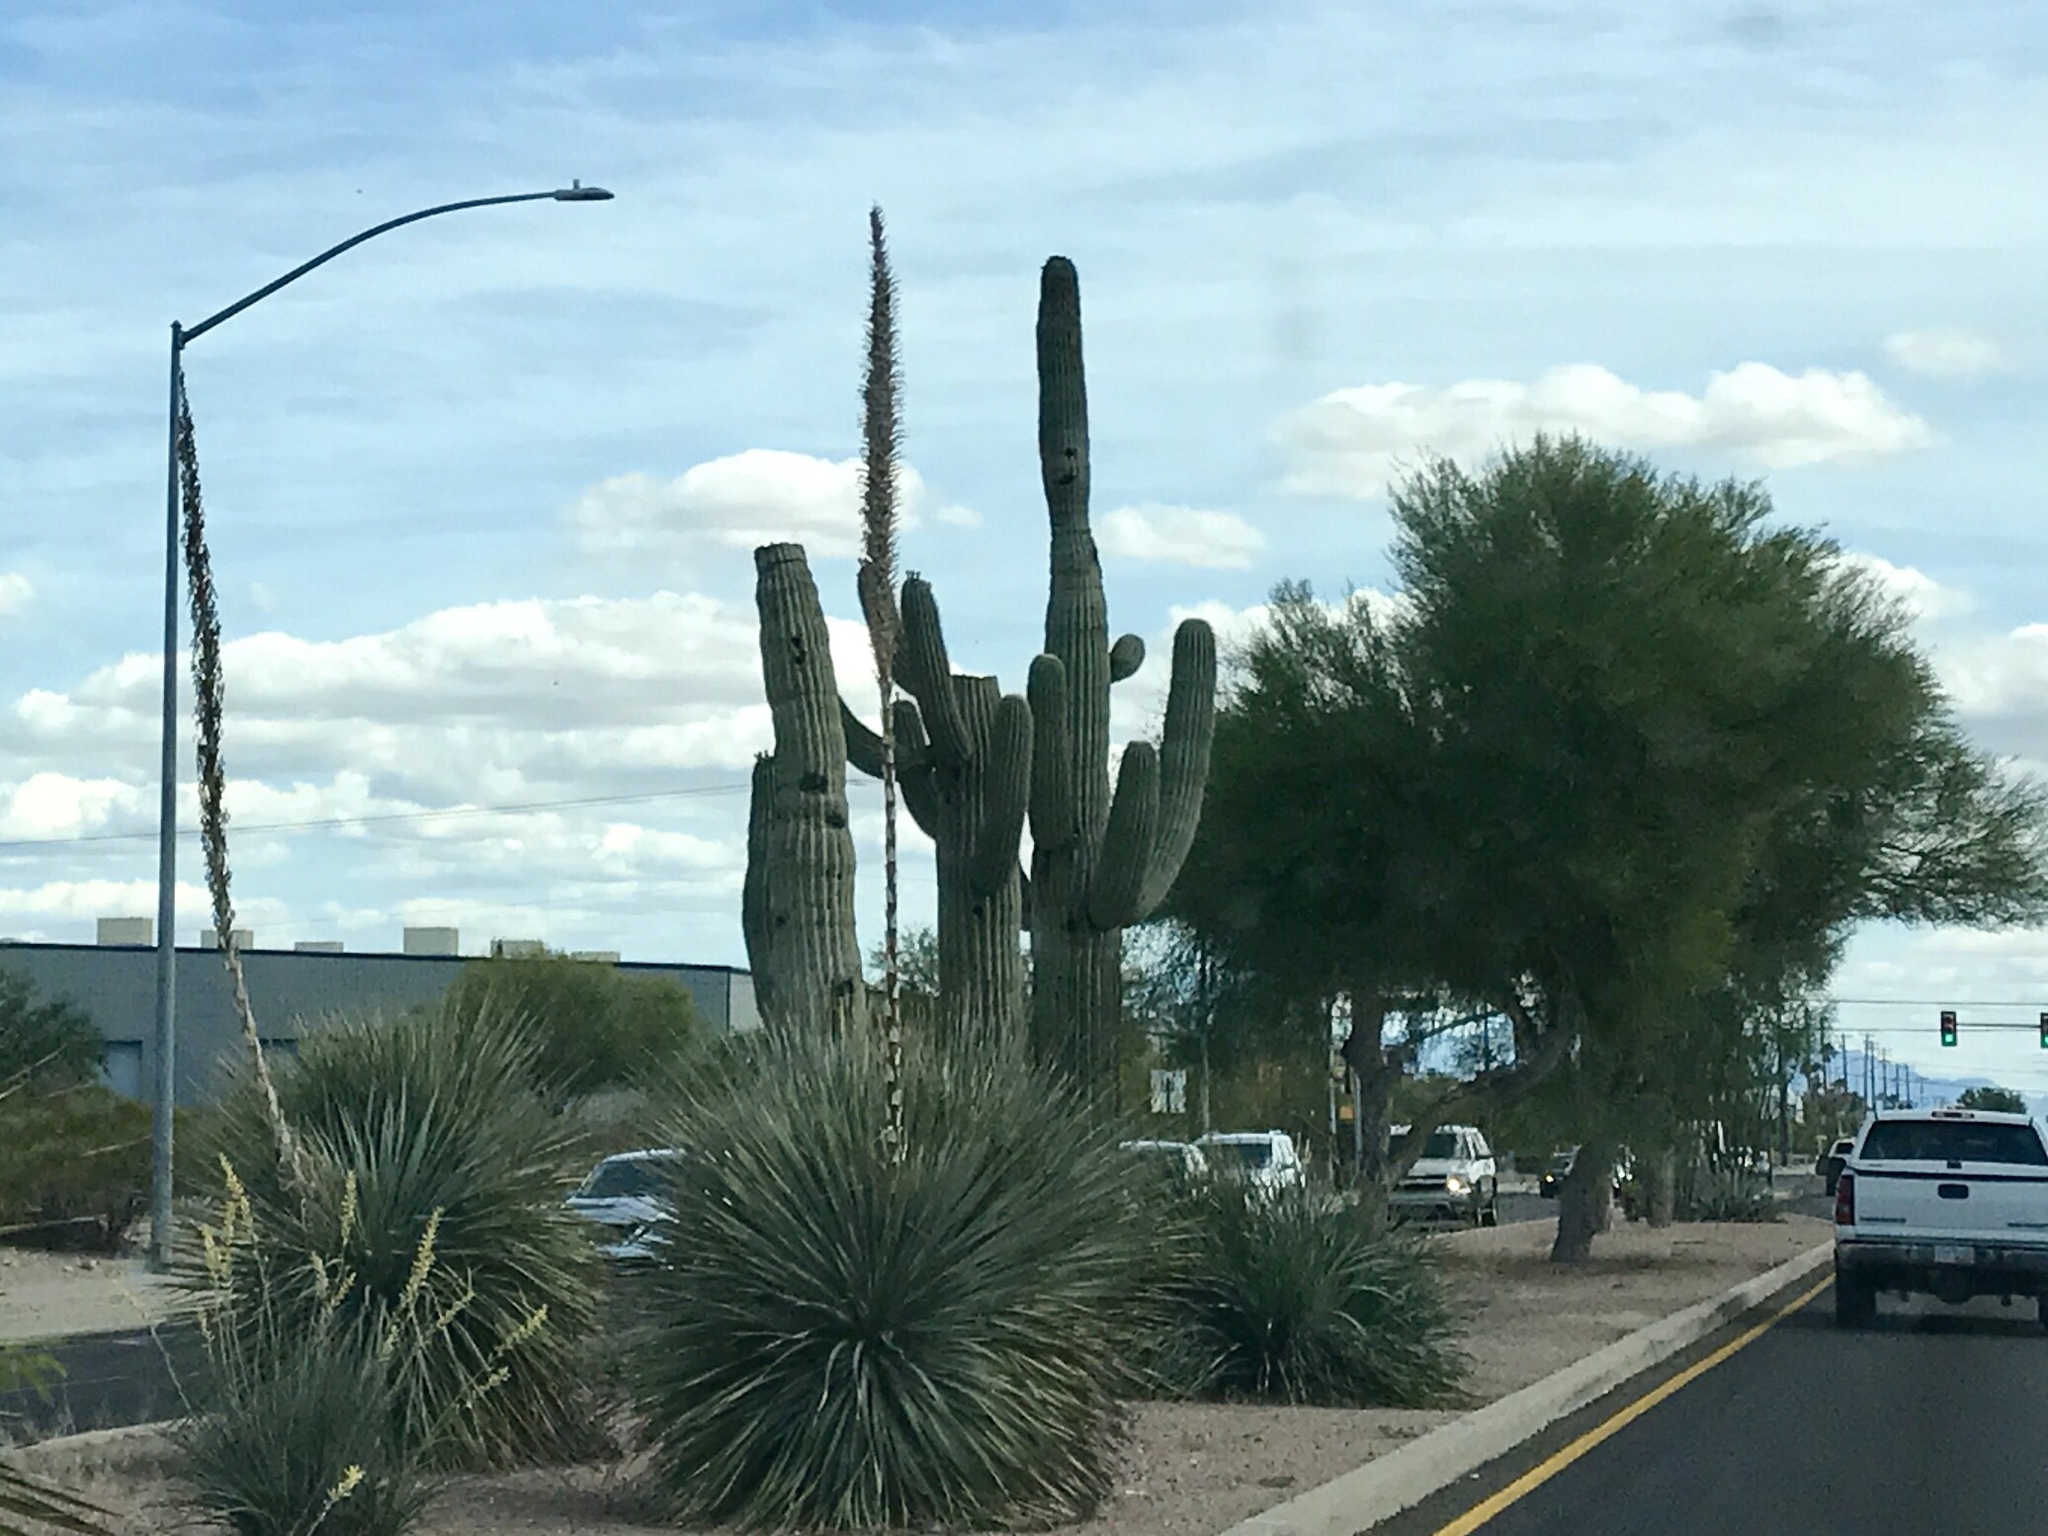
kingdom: Plantae
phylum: Tracheophyta
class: Magnoliopsida
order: Caryophyllales
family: Cactaceae
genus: Carnegiea
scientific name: Carnegiea gigantea
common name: Saguaro
